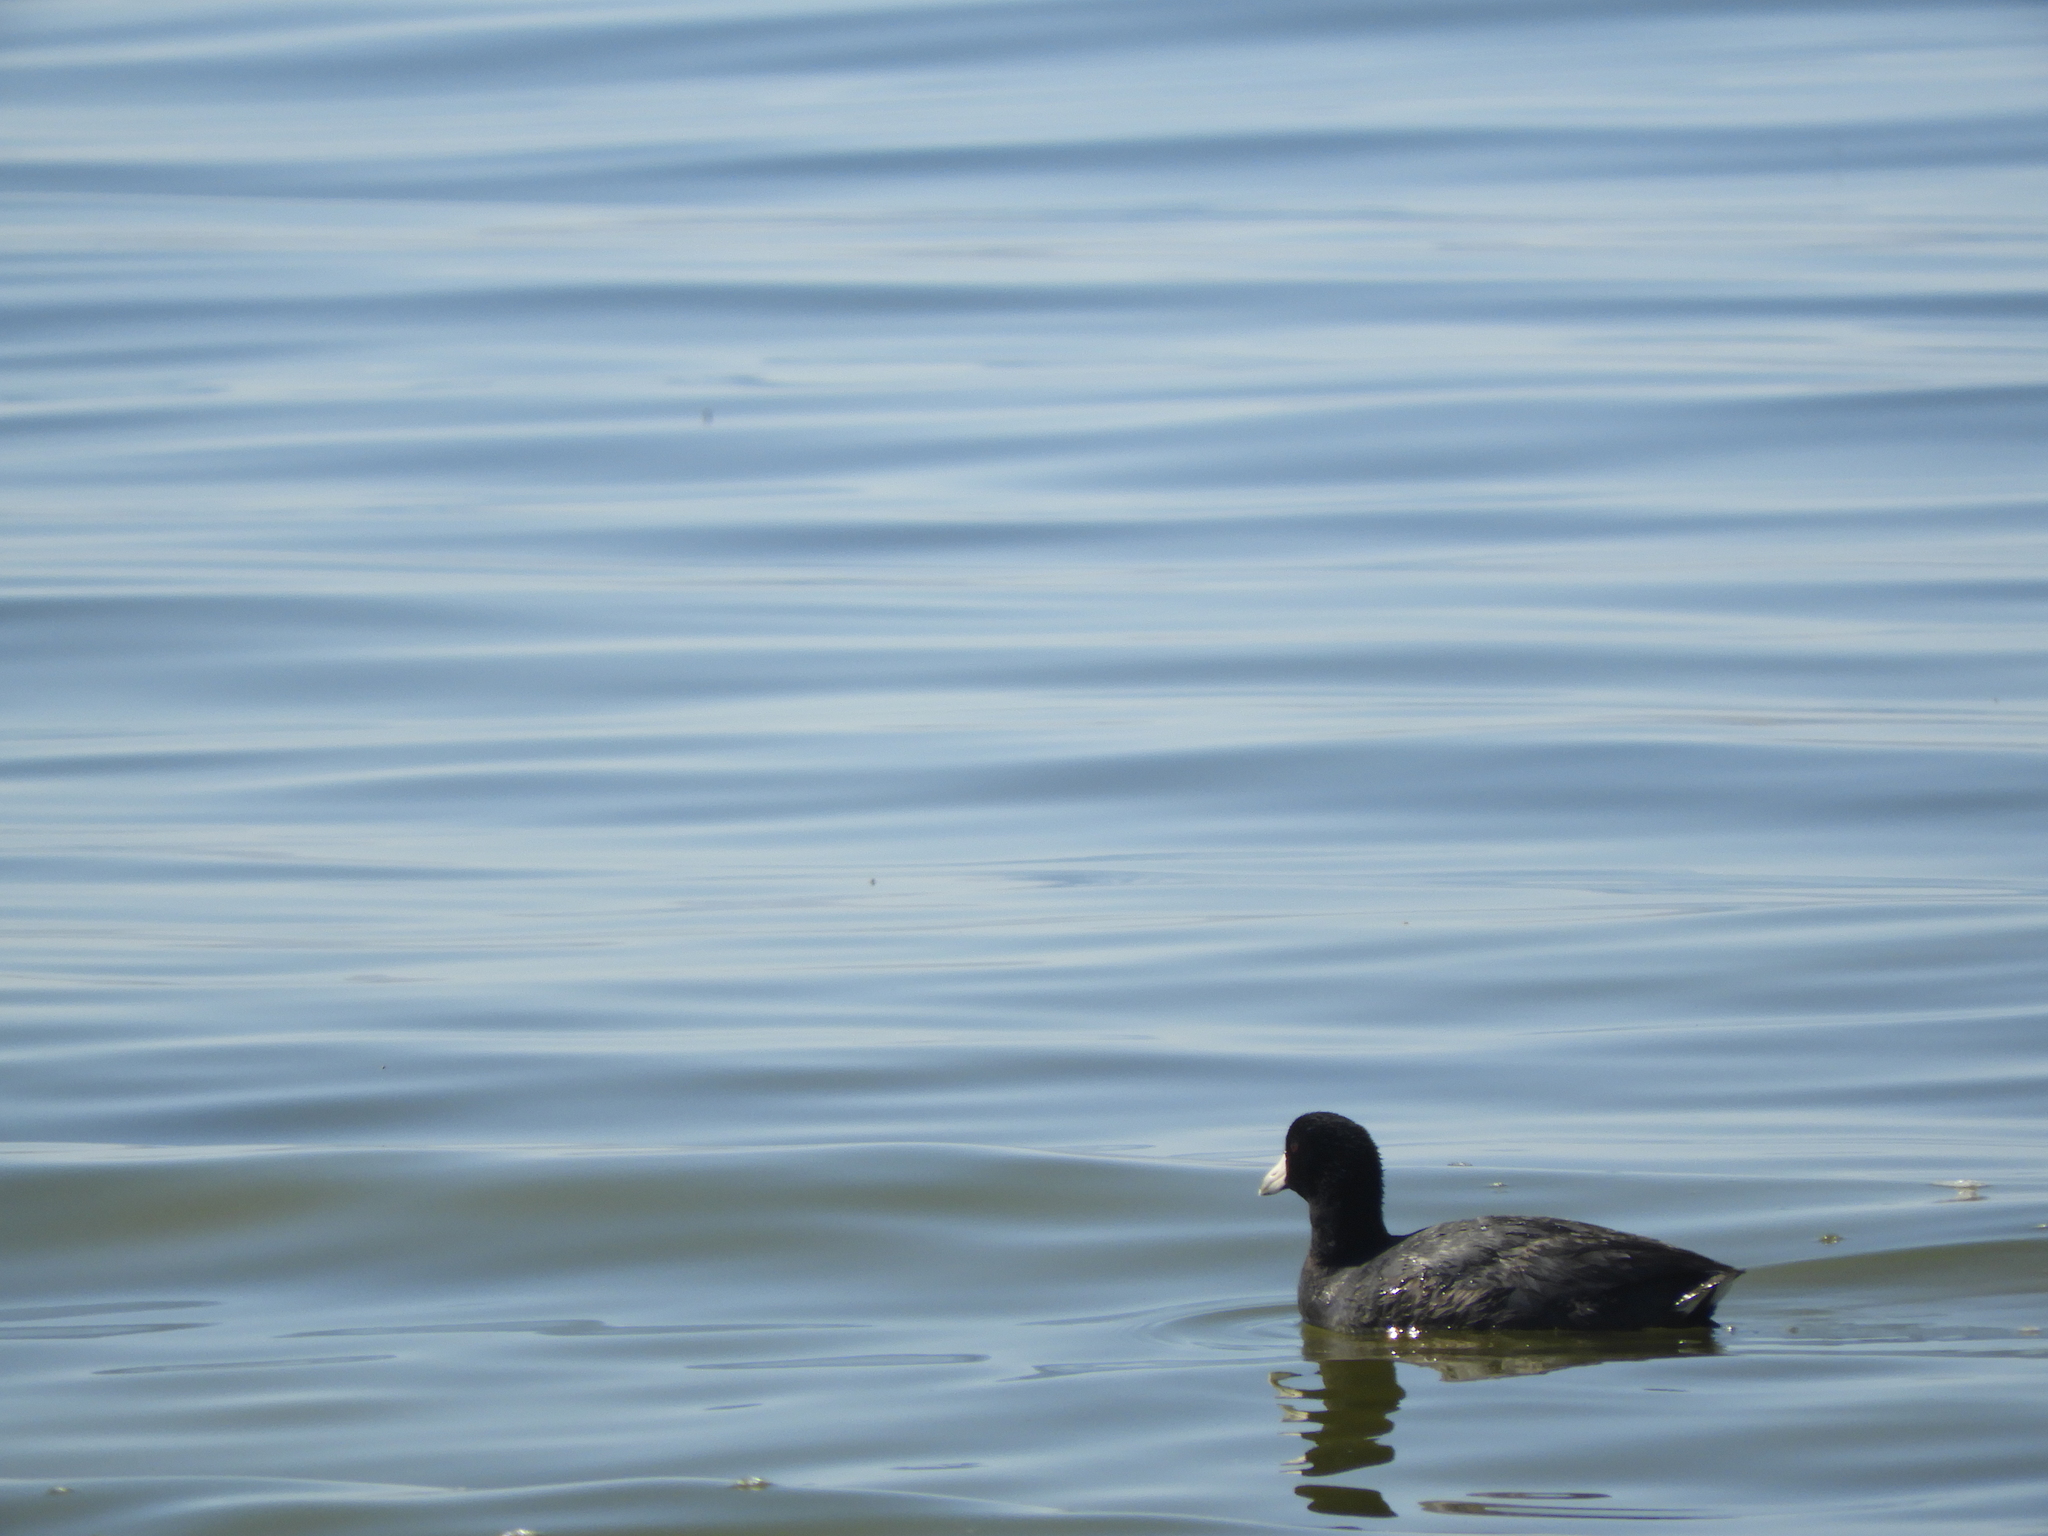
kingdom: Animalia
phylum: Chordata
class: Aves
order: Gruiformes
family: Rallidae
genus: Fulica
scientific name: Fulica americana
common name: American coot
